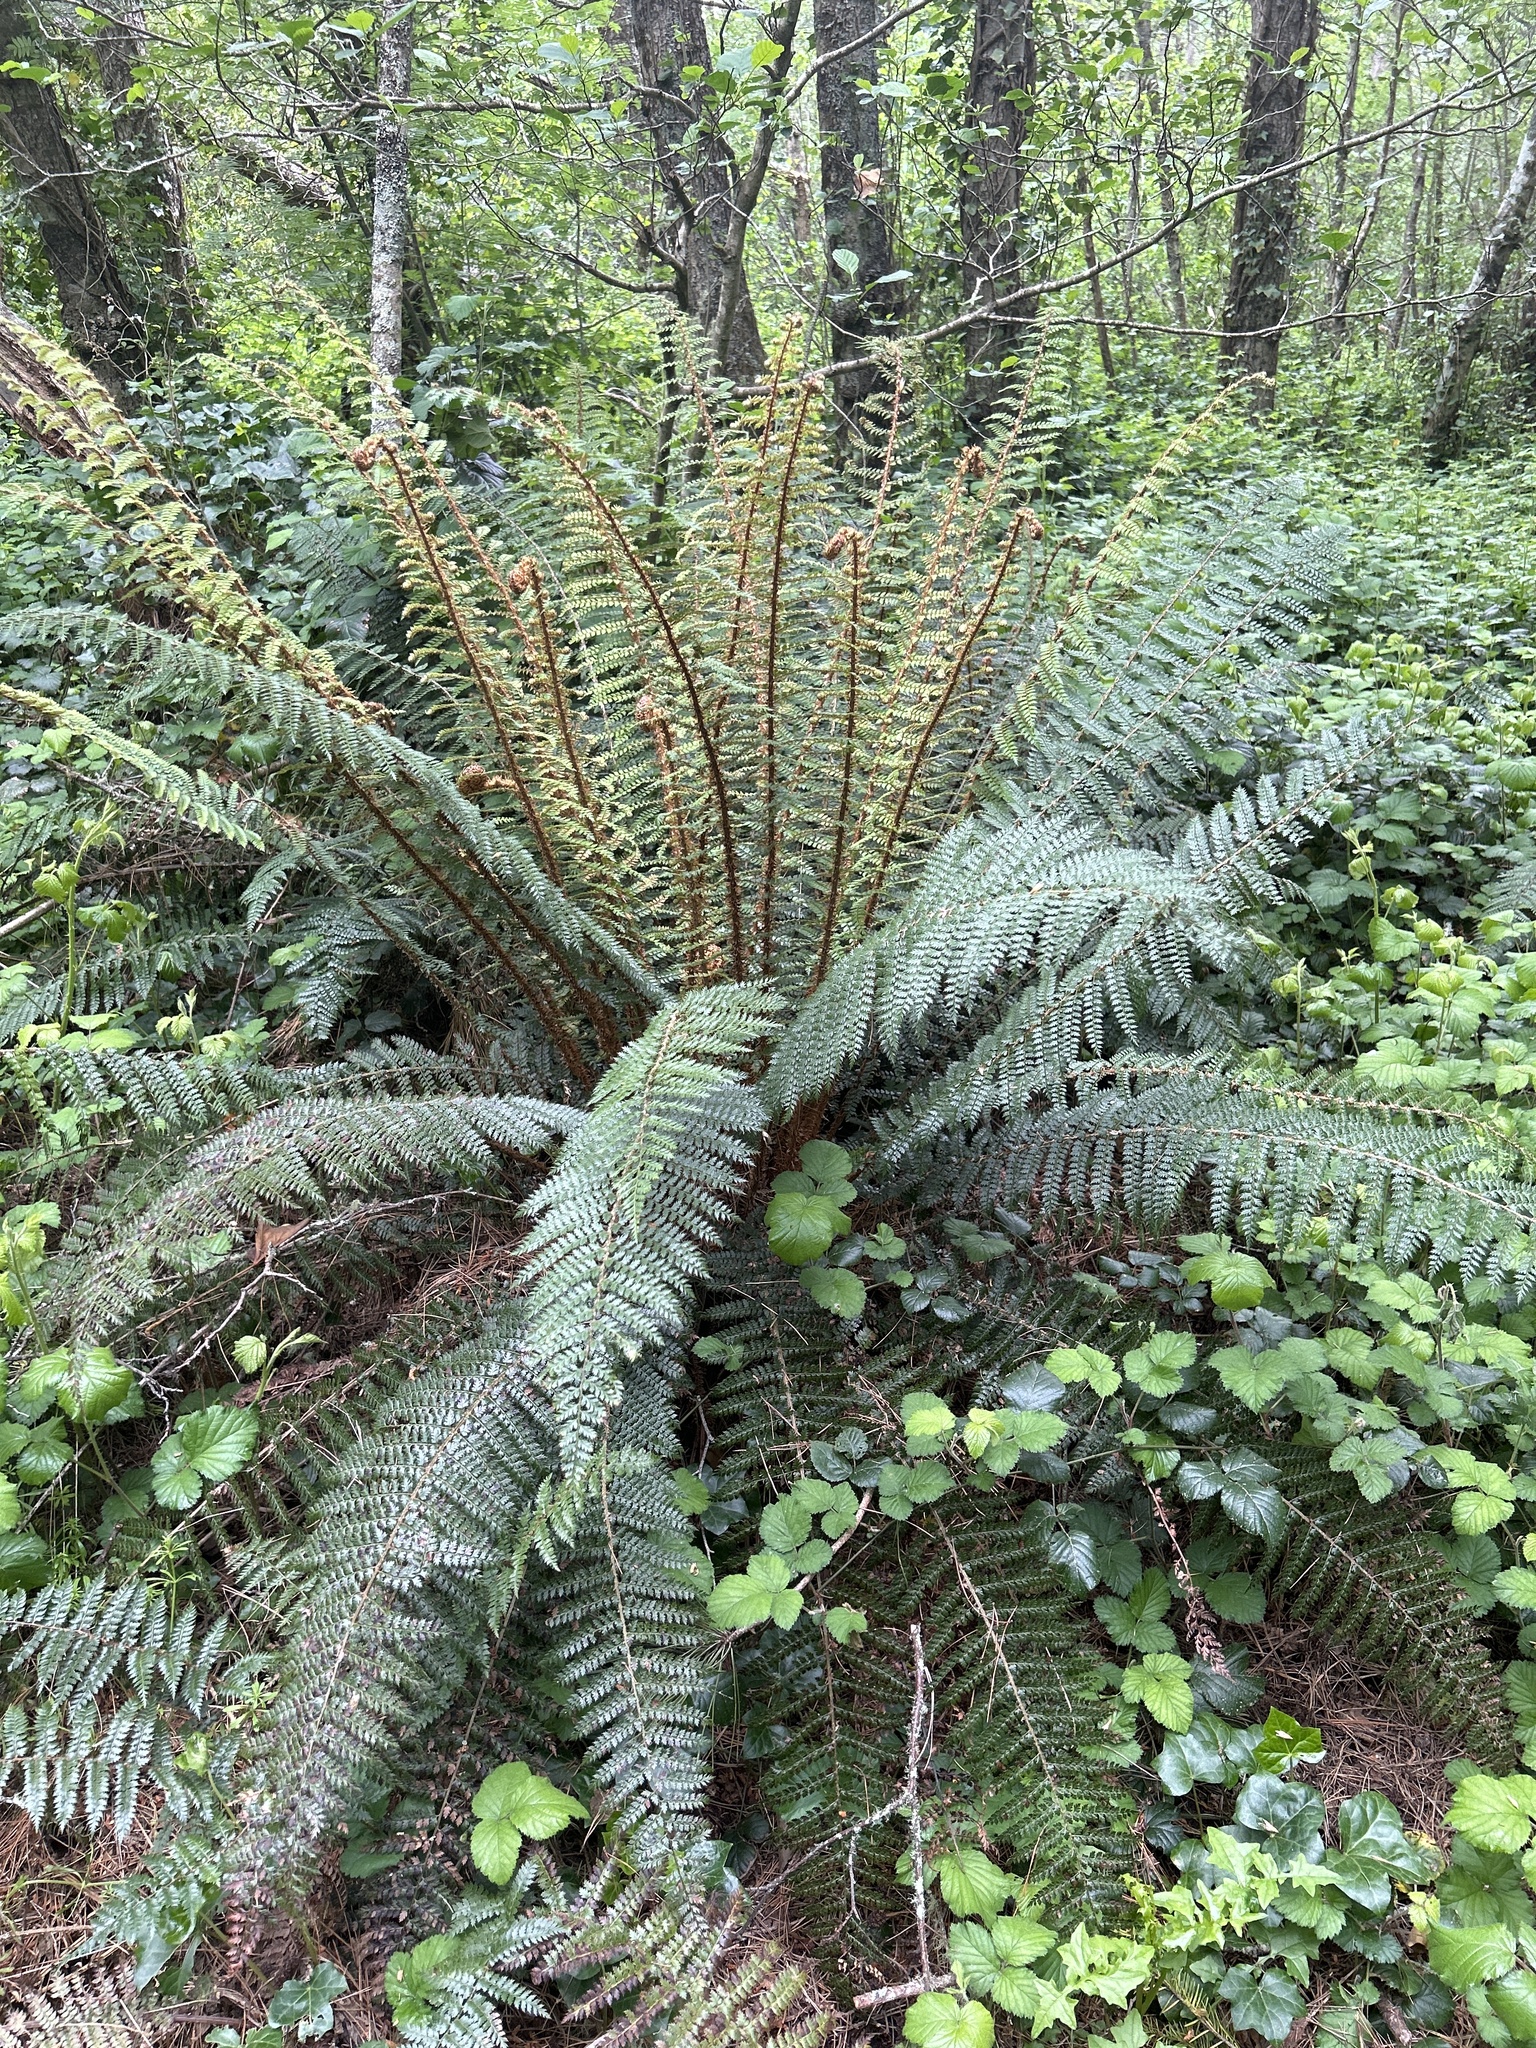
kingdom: Plantae
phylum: Tracheophyta
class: Polypodiopsida
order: Polypodiales
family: Dryopteridaceae
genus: Polystichum
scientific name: Polystichum vestitum
